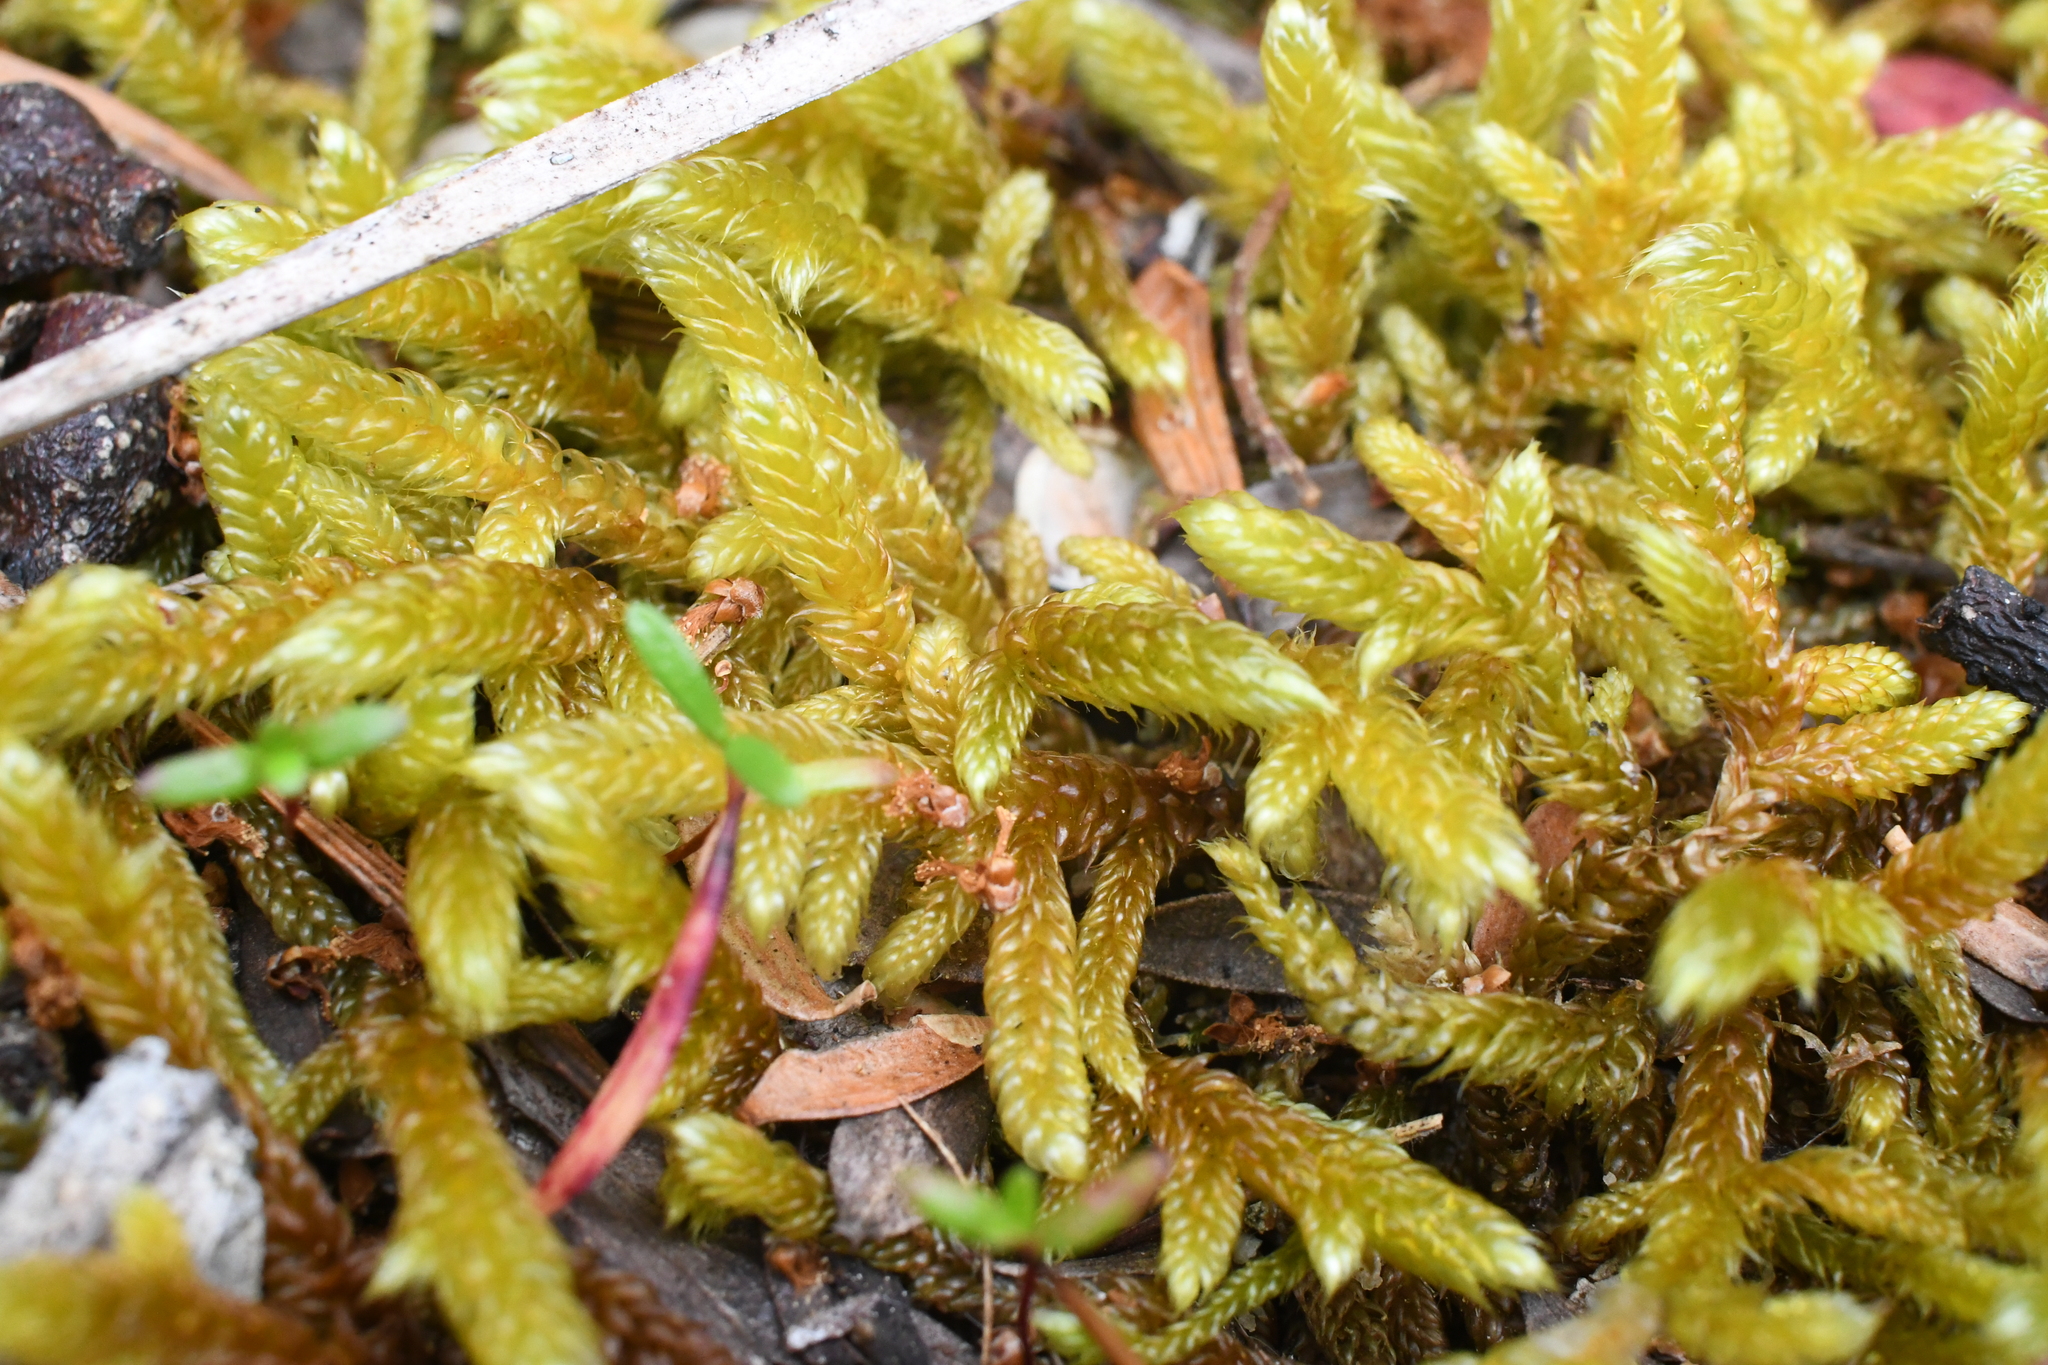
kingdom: Plantae
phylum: Bryophyta
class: Bryopsida
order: Hypnales
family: Hypnaceae
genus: Hypnum
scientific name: Hypnum cupressiforme
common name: Cypress-leaved plait-moss
